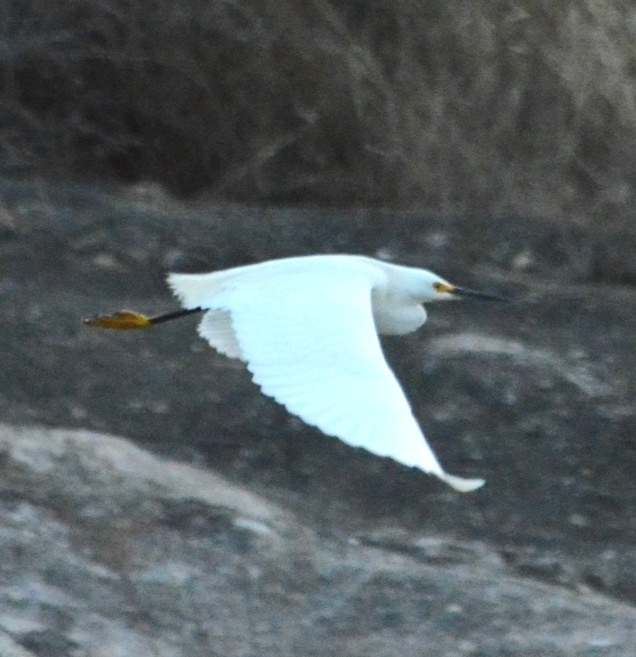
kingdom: Animalia
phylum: Chordata
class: Aves
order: Pelecaniformes
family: Ardeidae
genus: Egretta
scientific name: Egretta thula
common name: Snowy egret
